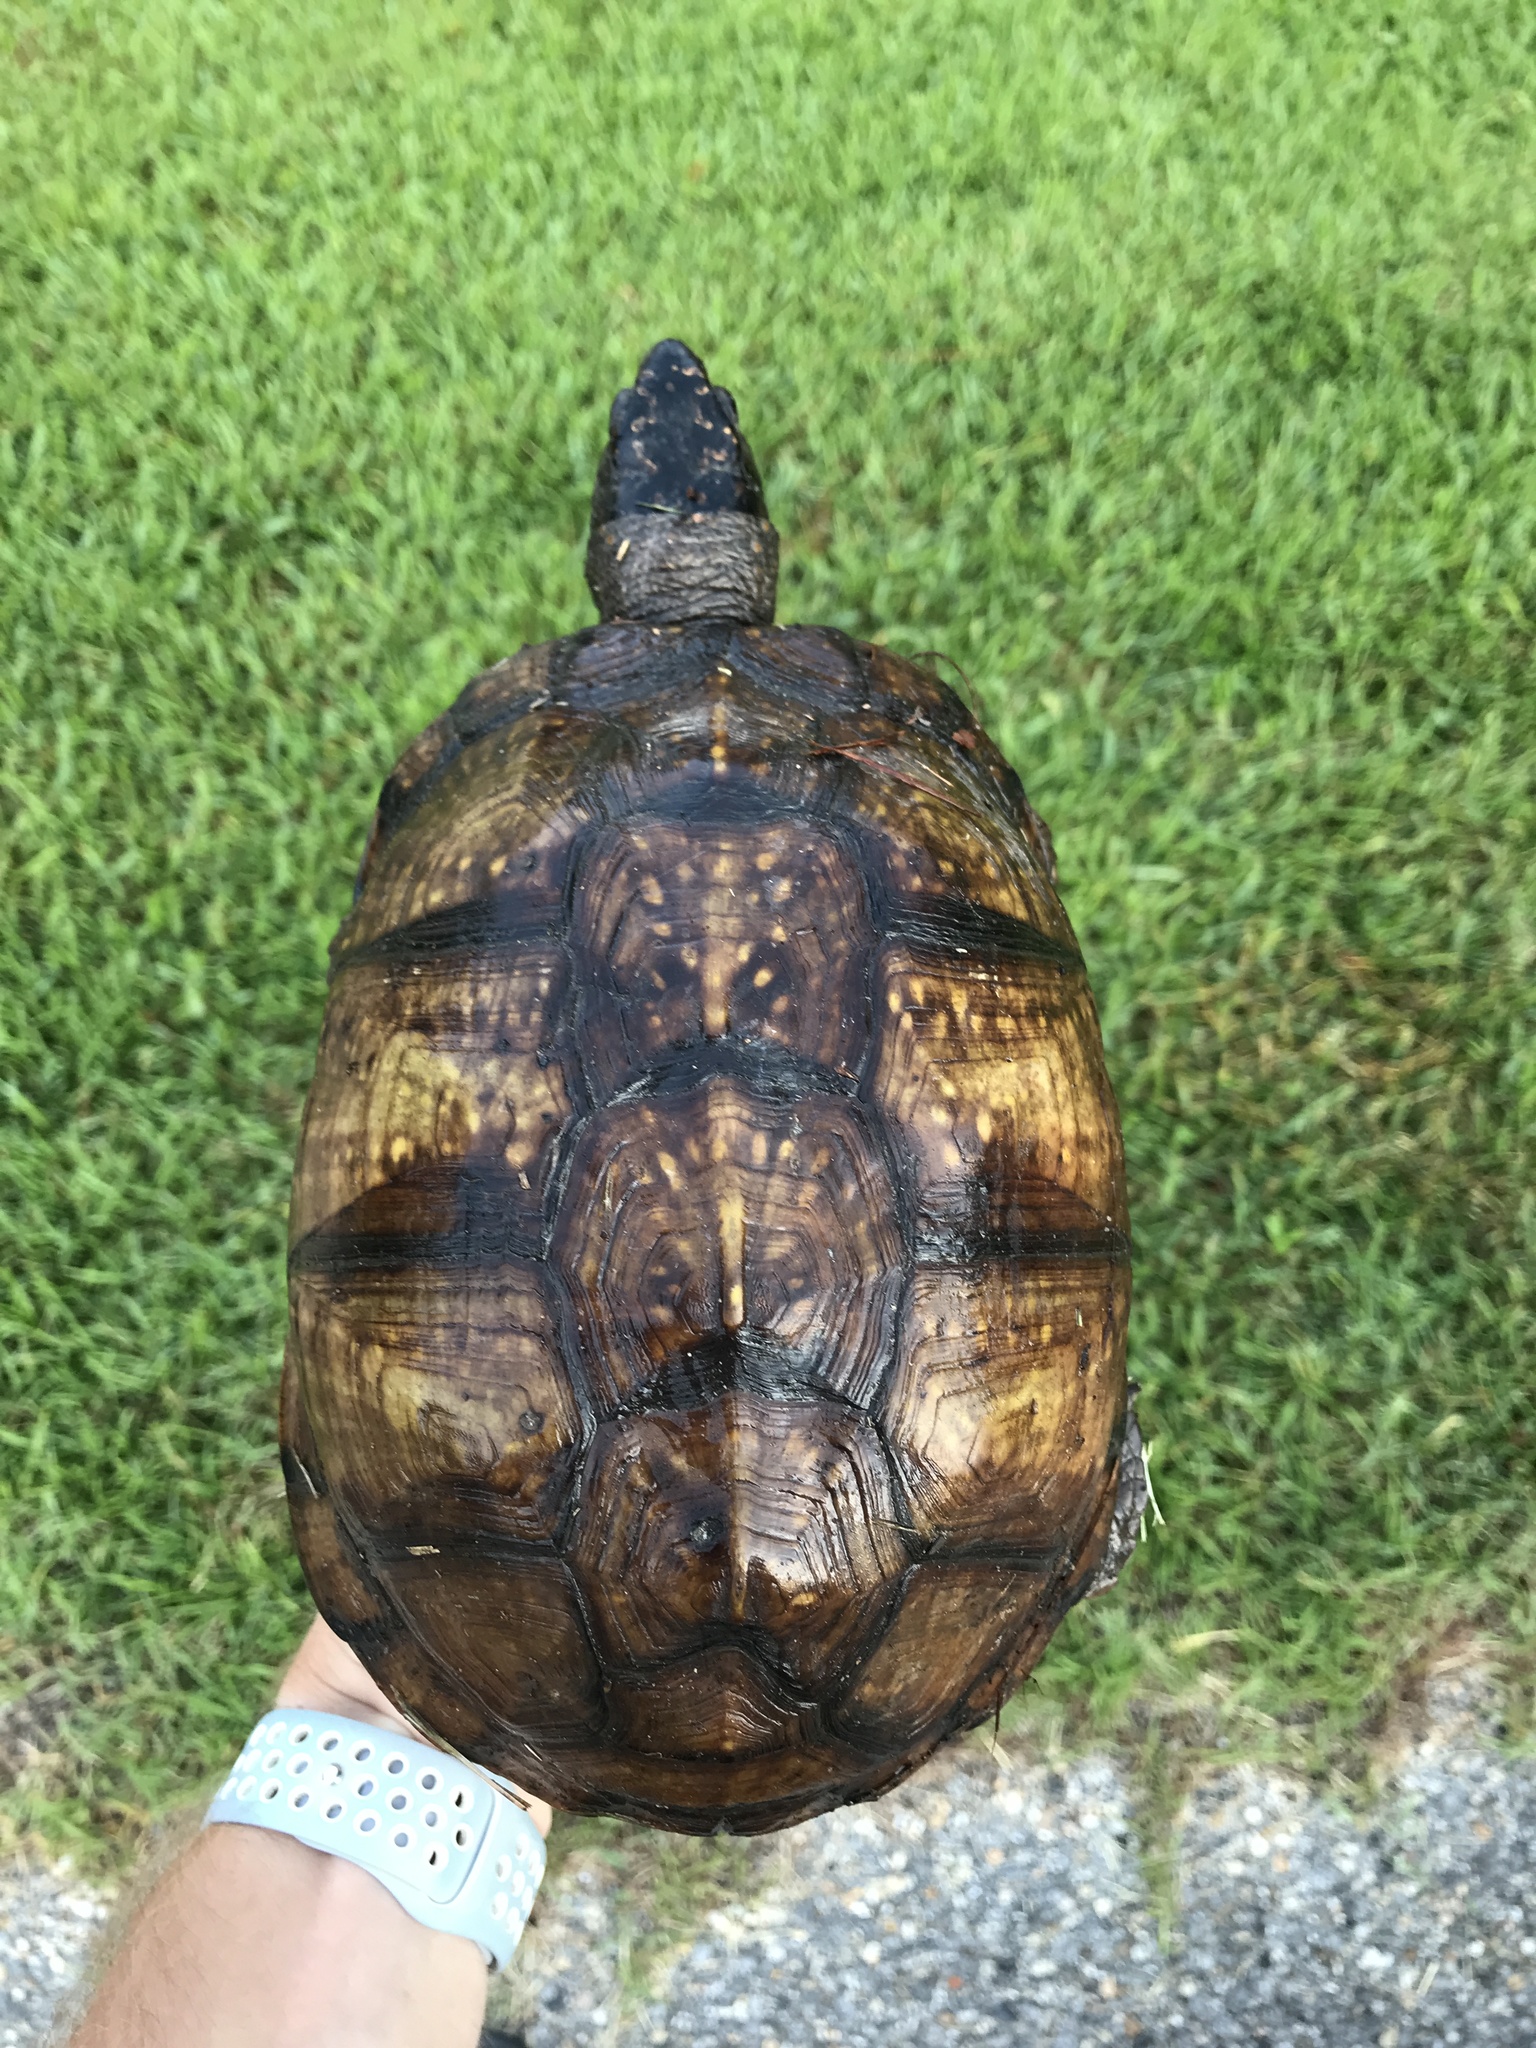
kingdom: Animalia
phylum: Chordata
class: Testudines
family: Emydidae
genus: Terrapene
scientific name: Terrapene carolina
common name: Common box turtle
